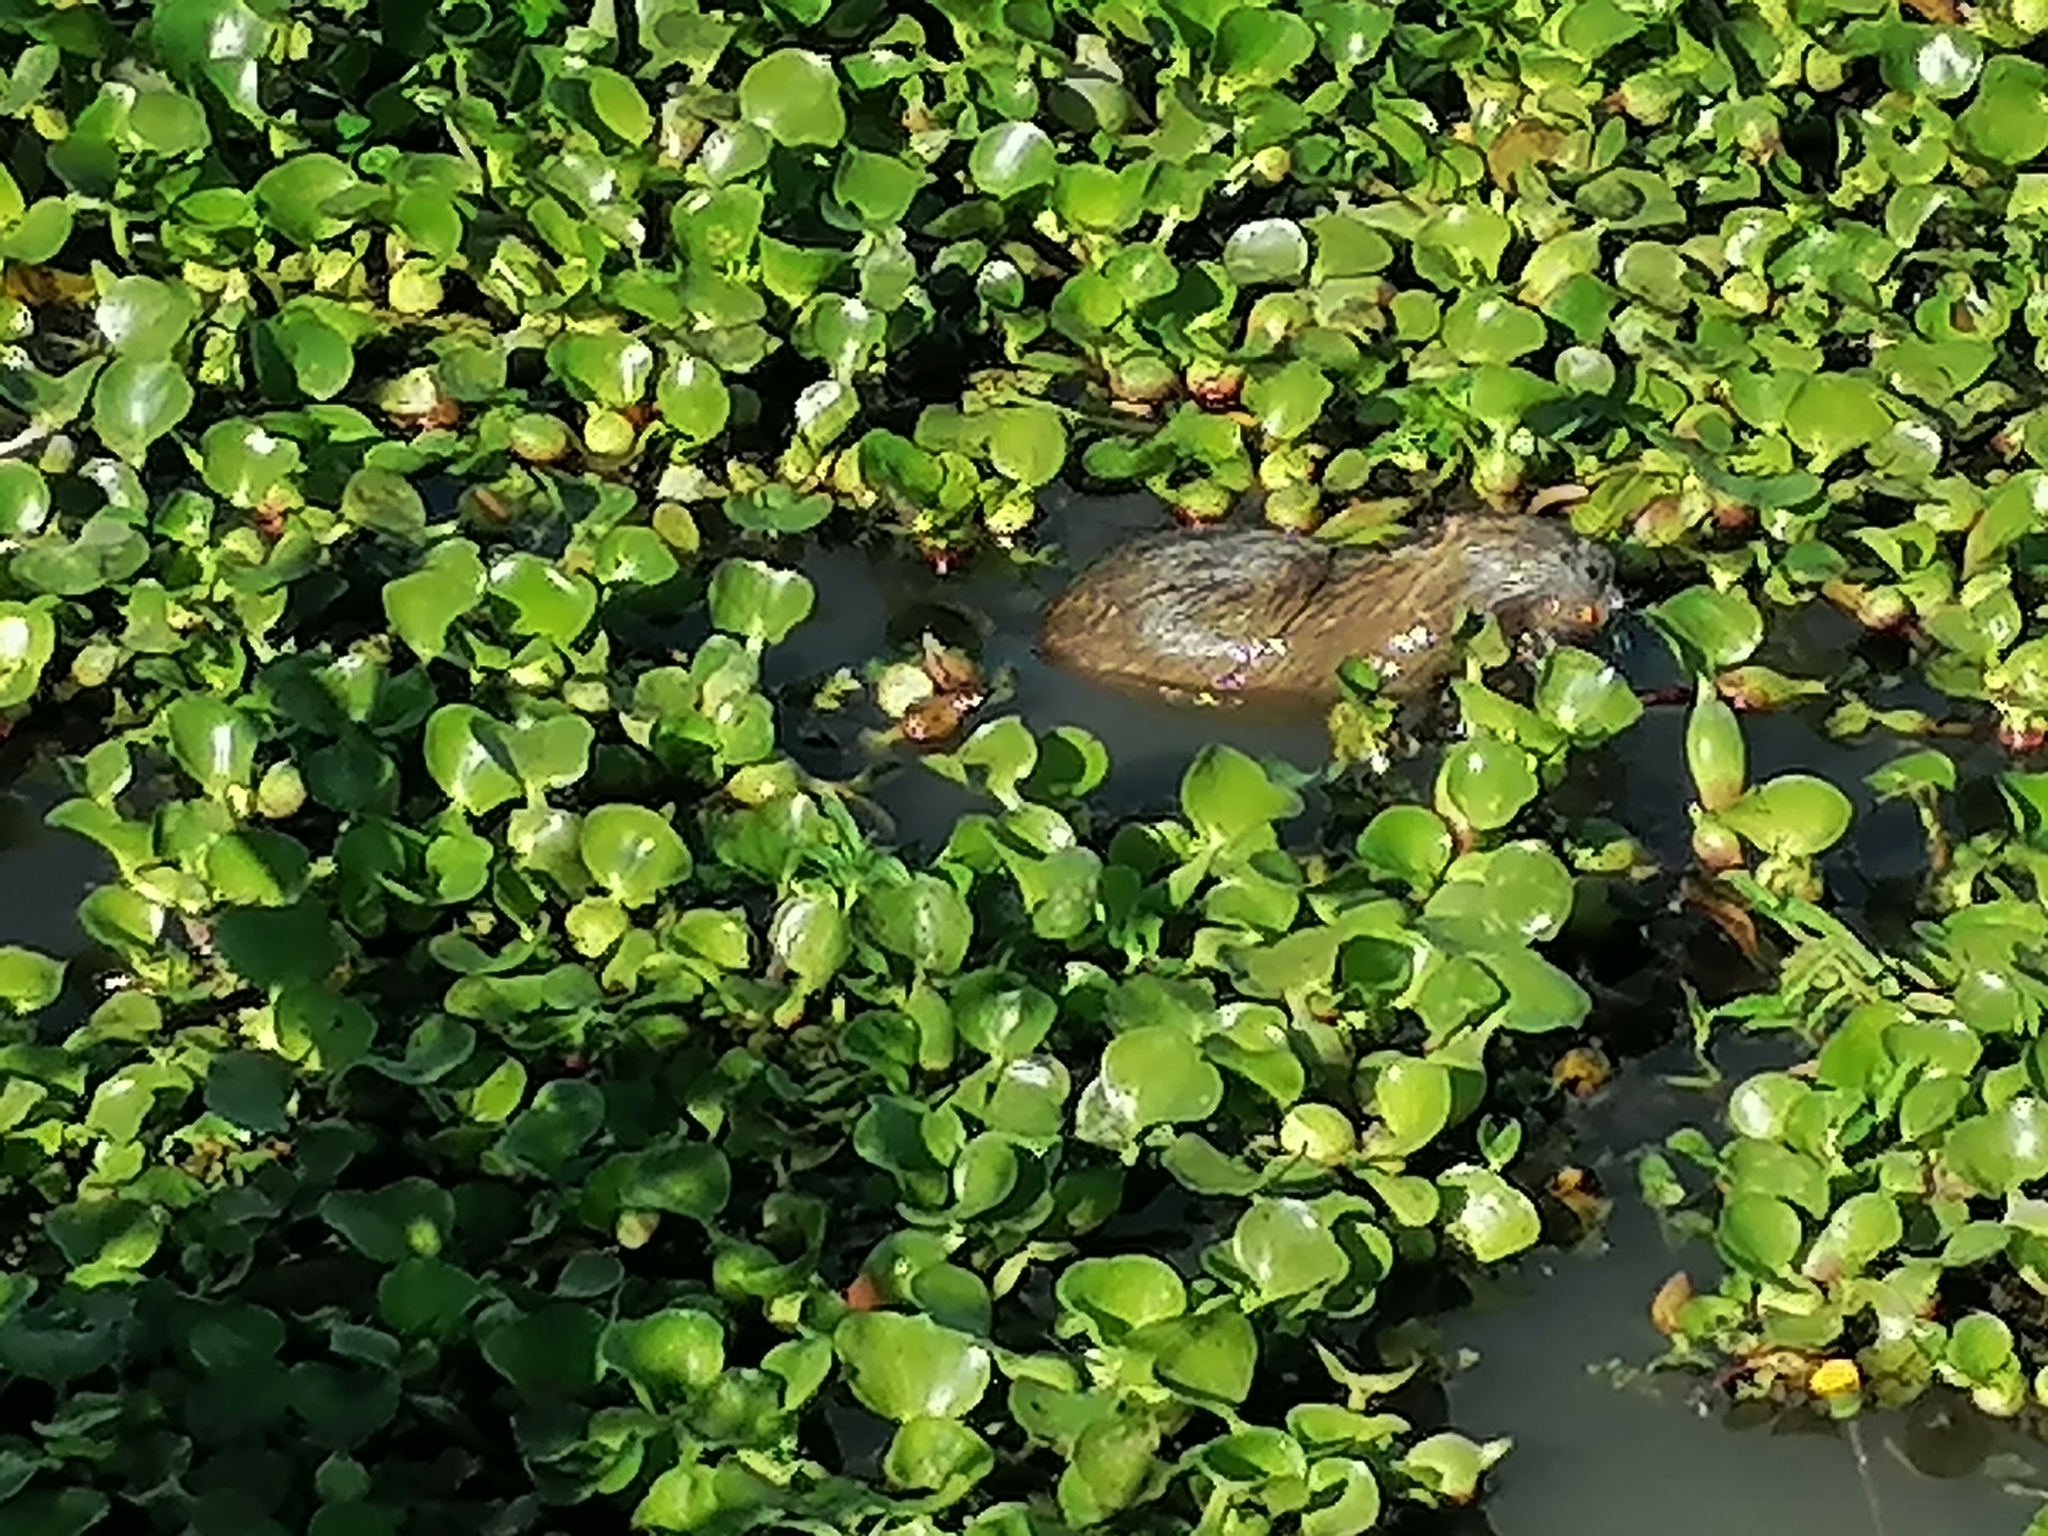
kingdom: Animalia
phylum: Chordata
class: Mammalia
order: Rodentia
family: Myocastoridae
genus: Myocastor
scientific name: Myocastor coypus
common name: Coypu
